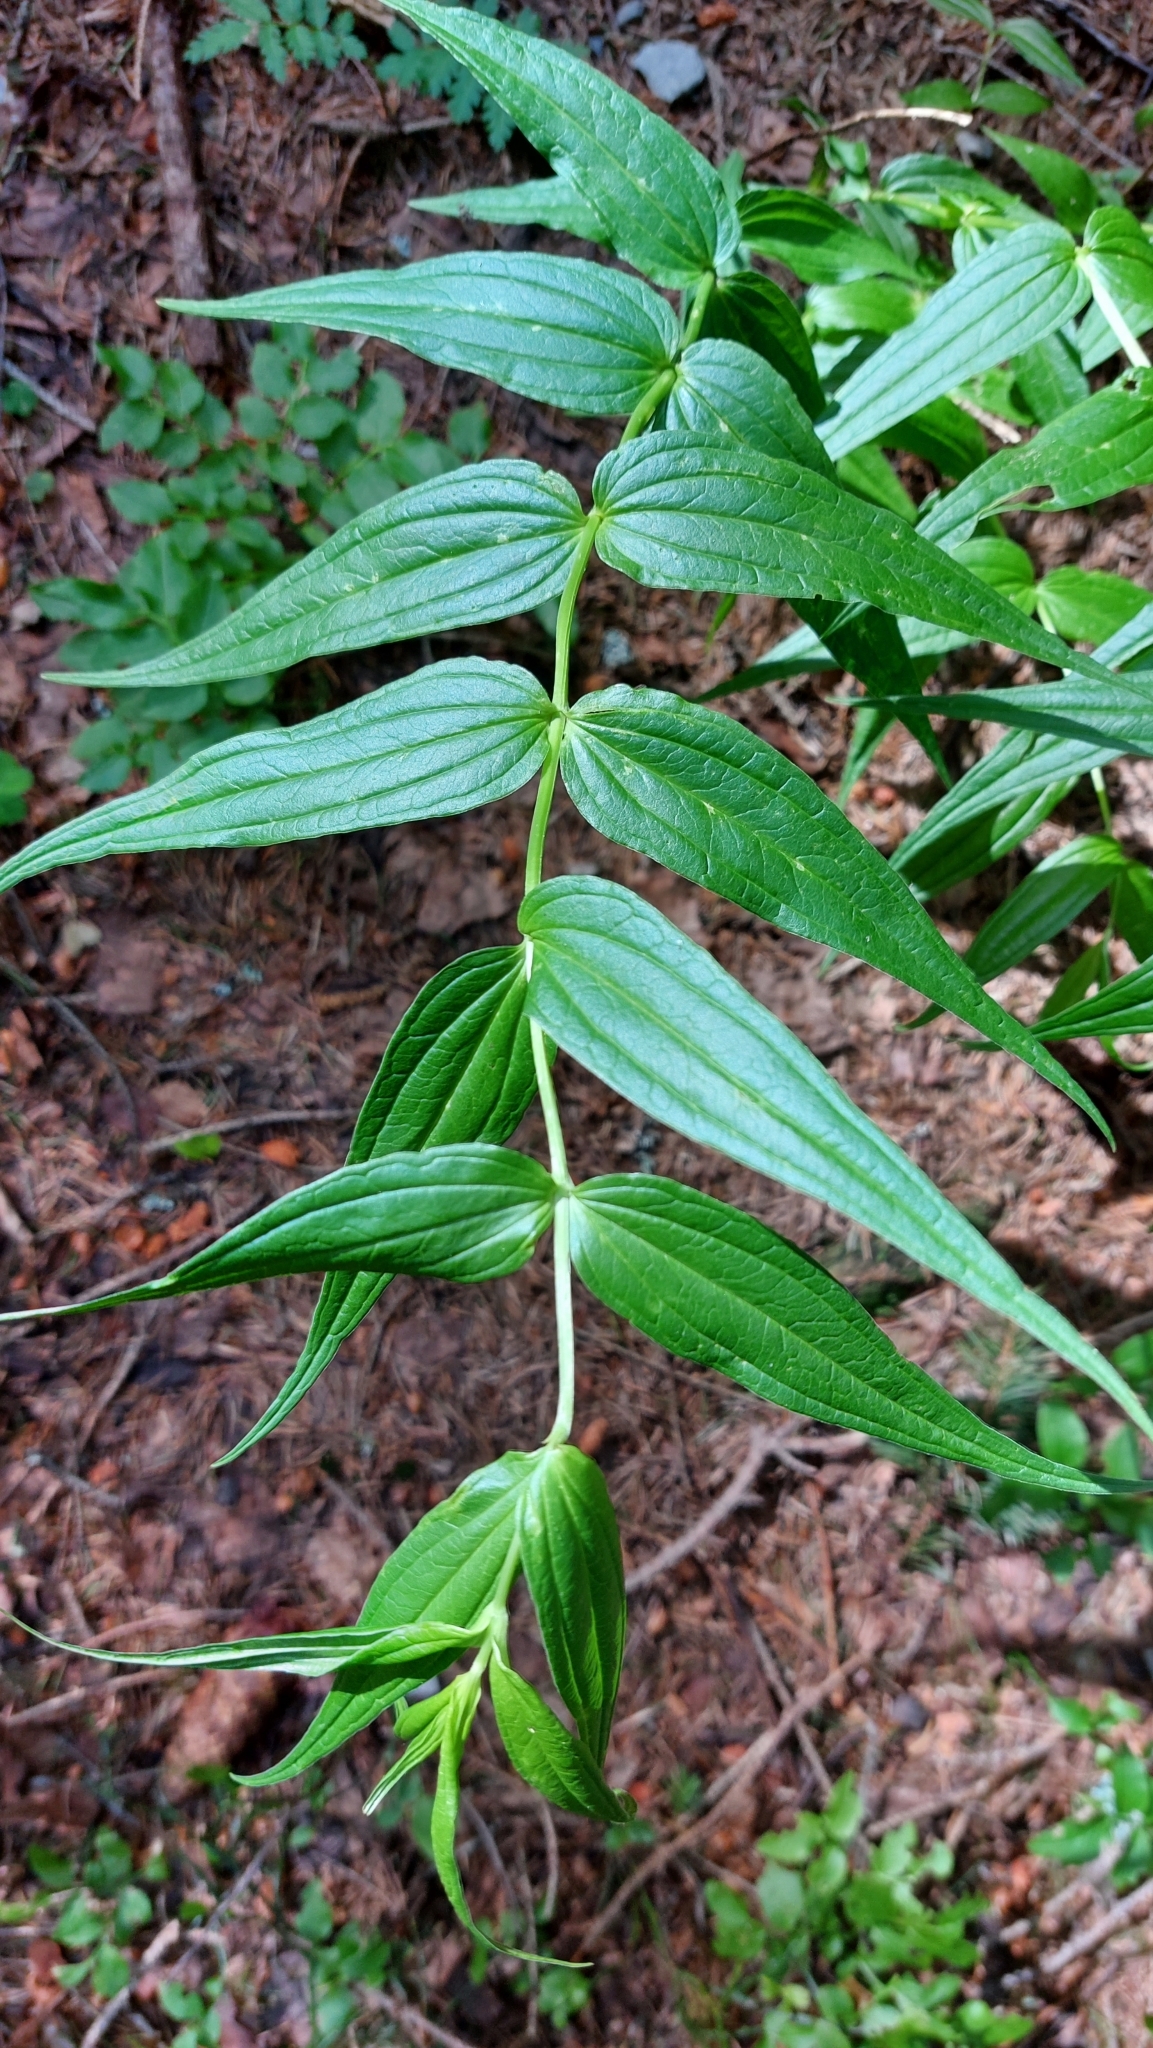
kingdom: Plantae
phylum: Tracheophyta
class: Magnoliopsida
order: Gentianales
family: Gentianaceae
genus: Gentiana
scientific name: Gentiana asclepiadea
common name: Willow gentian
